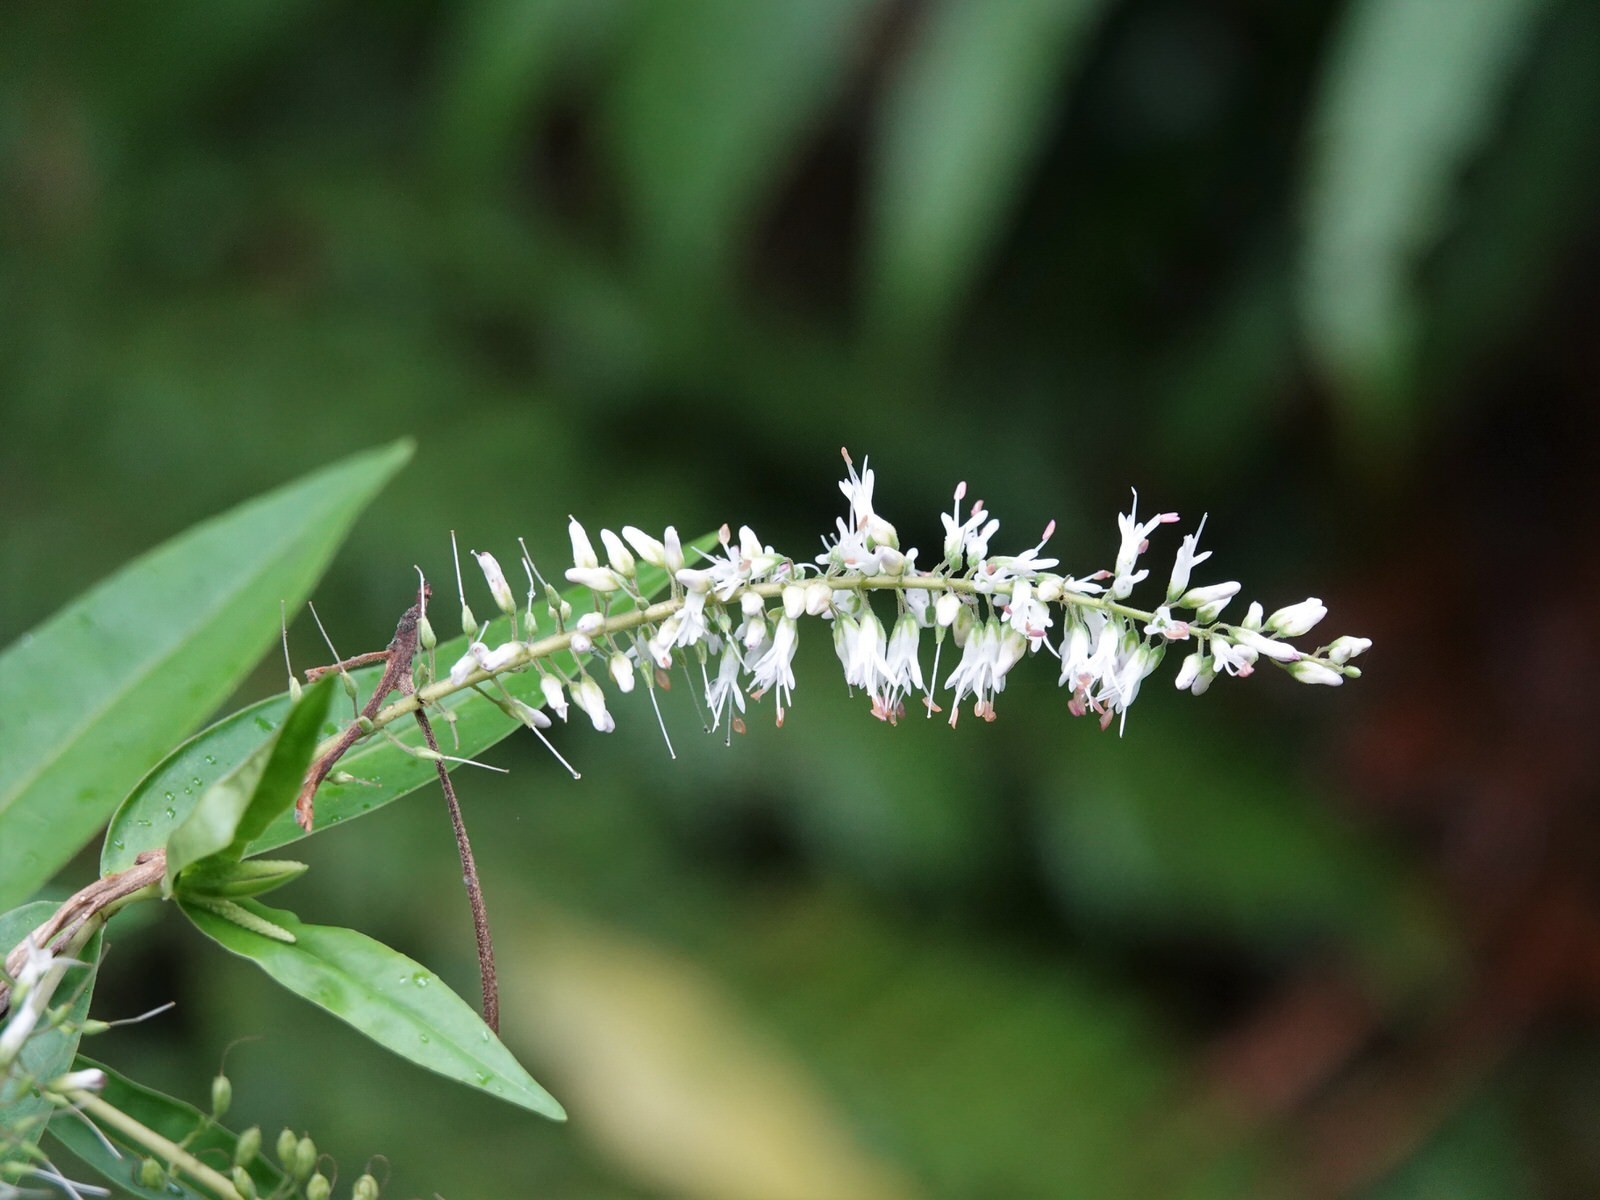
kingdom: Plantae
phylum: Tracheophyta
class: Magnoliopsida
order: Lamiales
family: Plantaginaceae
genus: Veronica
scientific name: Veronica stricta
